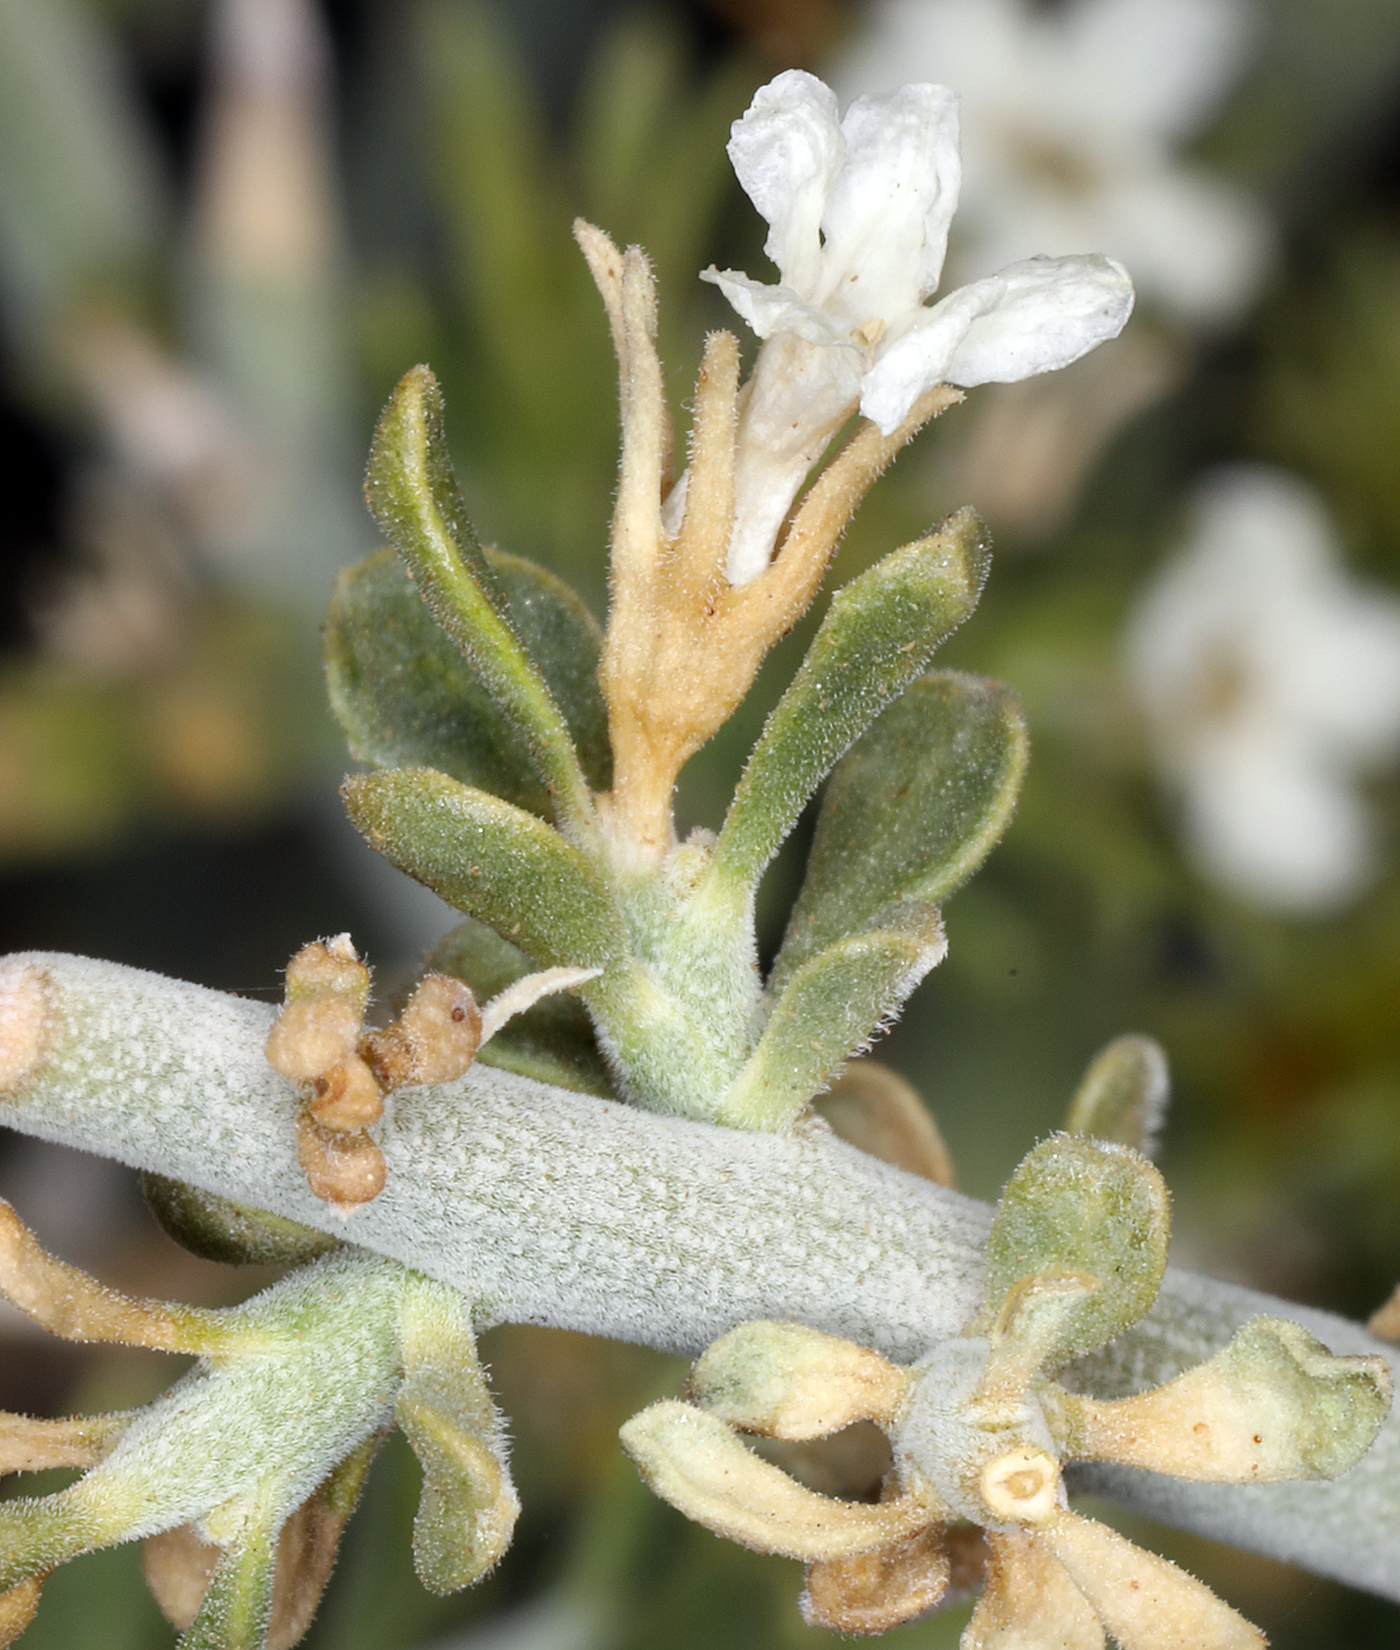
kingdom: Plantae
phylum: Tracheophyta
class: Magnoliopsida
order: Lamiales
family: Oleaceae
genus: Menodora
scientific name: Menodora spinescens
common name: Spiny menodora
